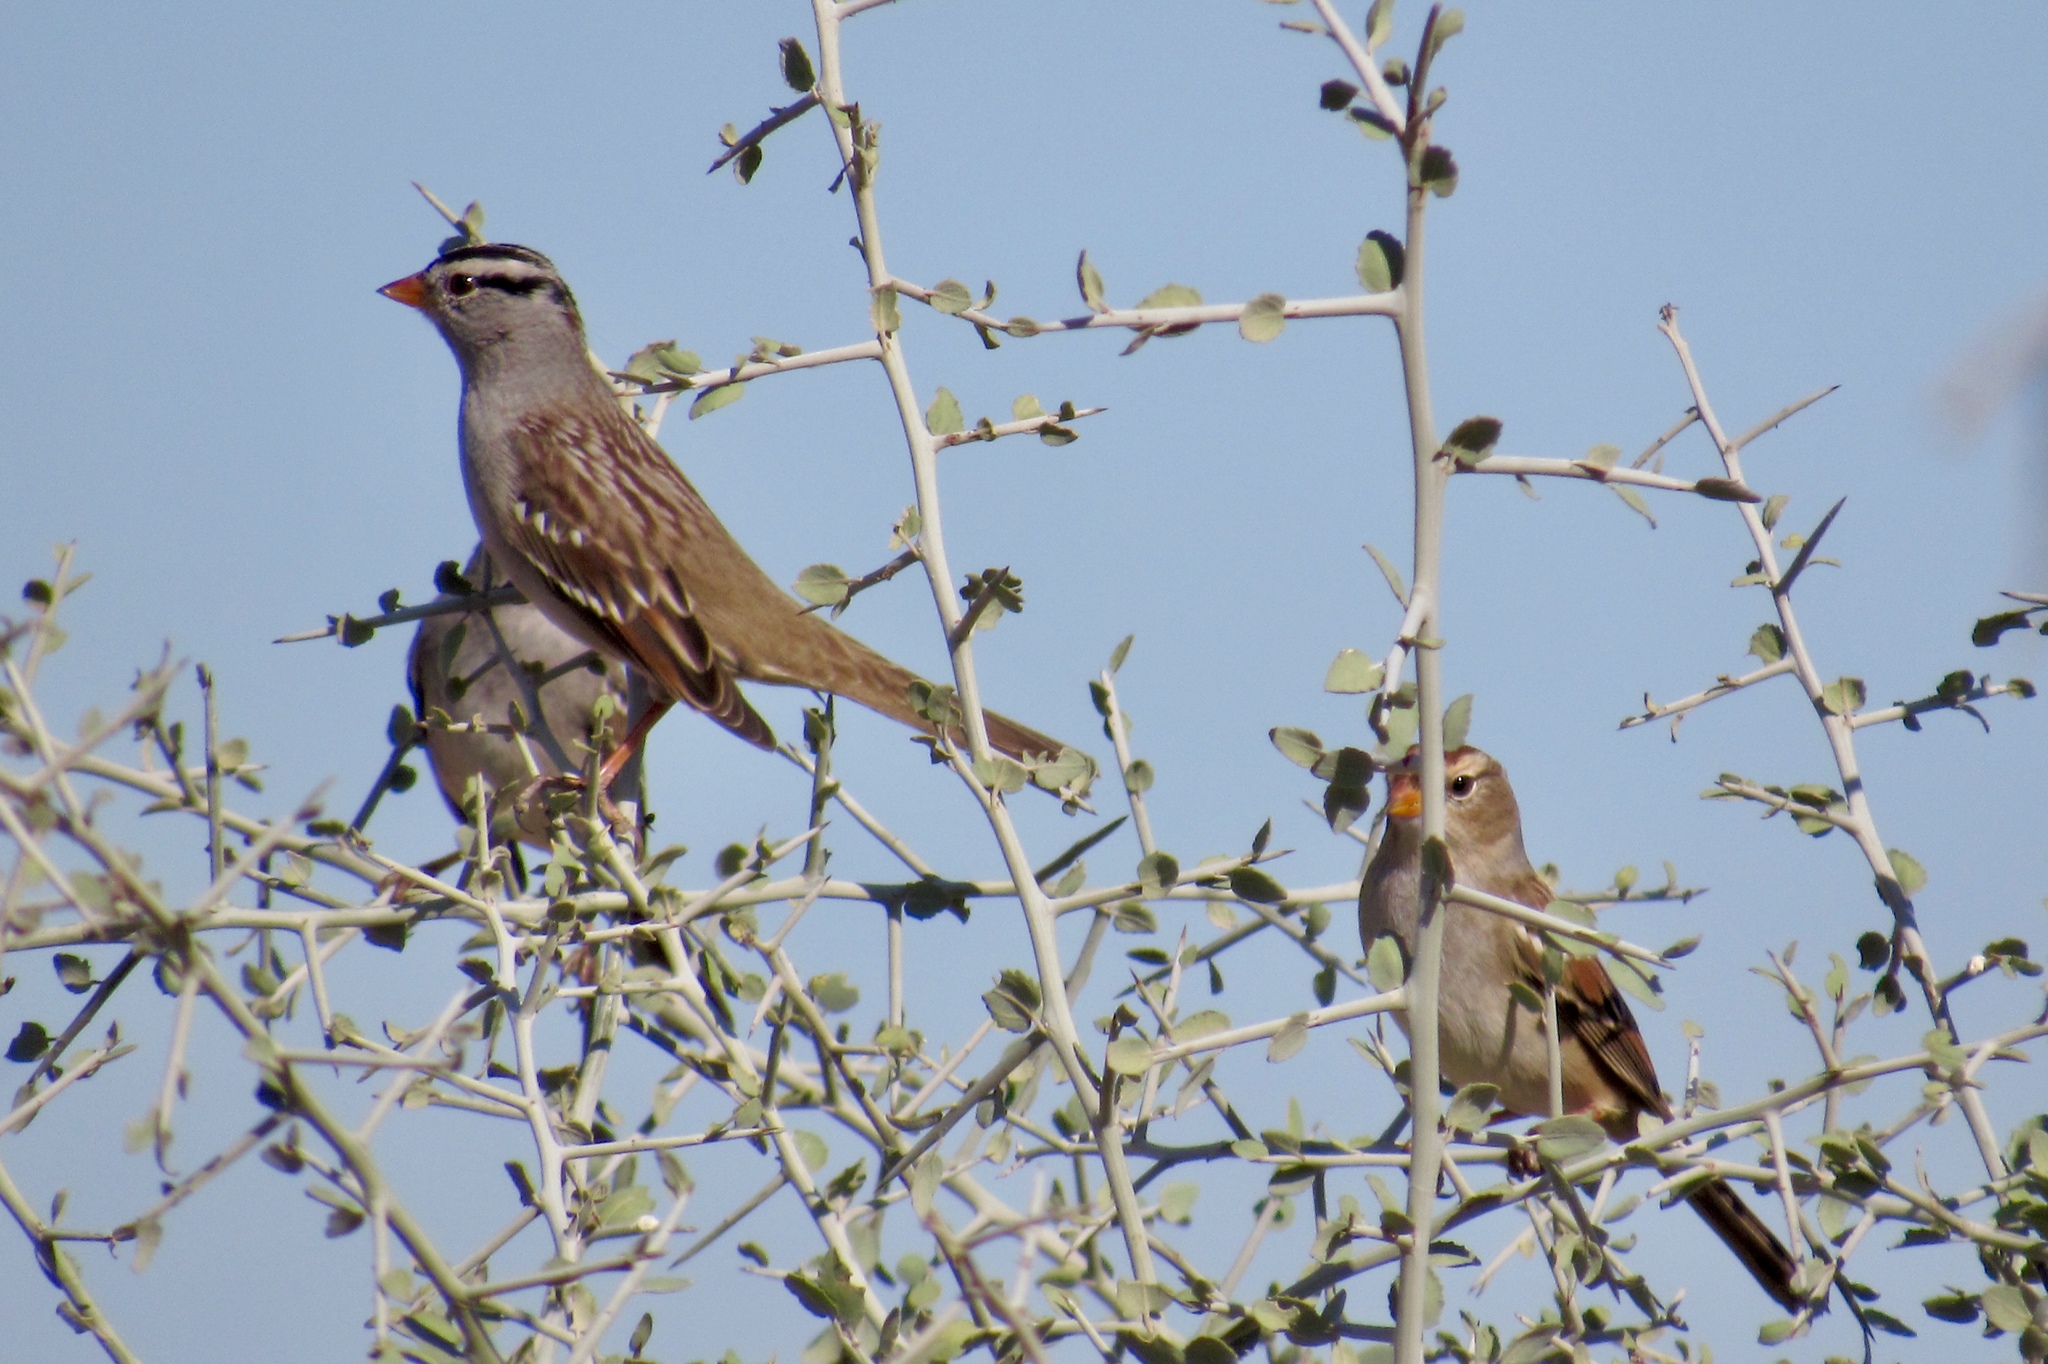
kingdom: Animalia
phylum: Chordata
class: Aves
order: Passeriformes
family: Passerellidae
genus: Zonotrichia
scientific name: Zonotrichia leucophrys
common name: White-crowned sparrow
